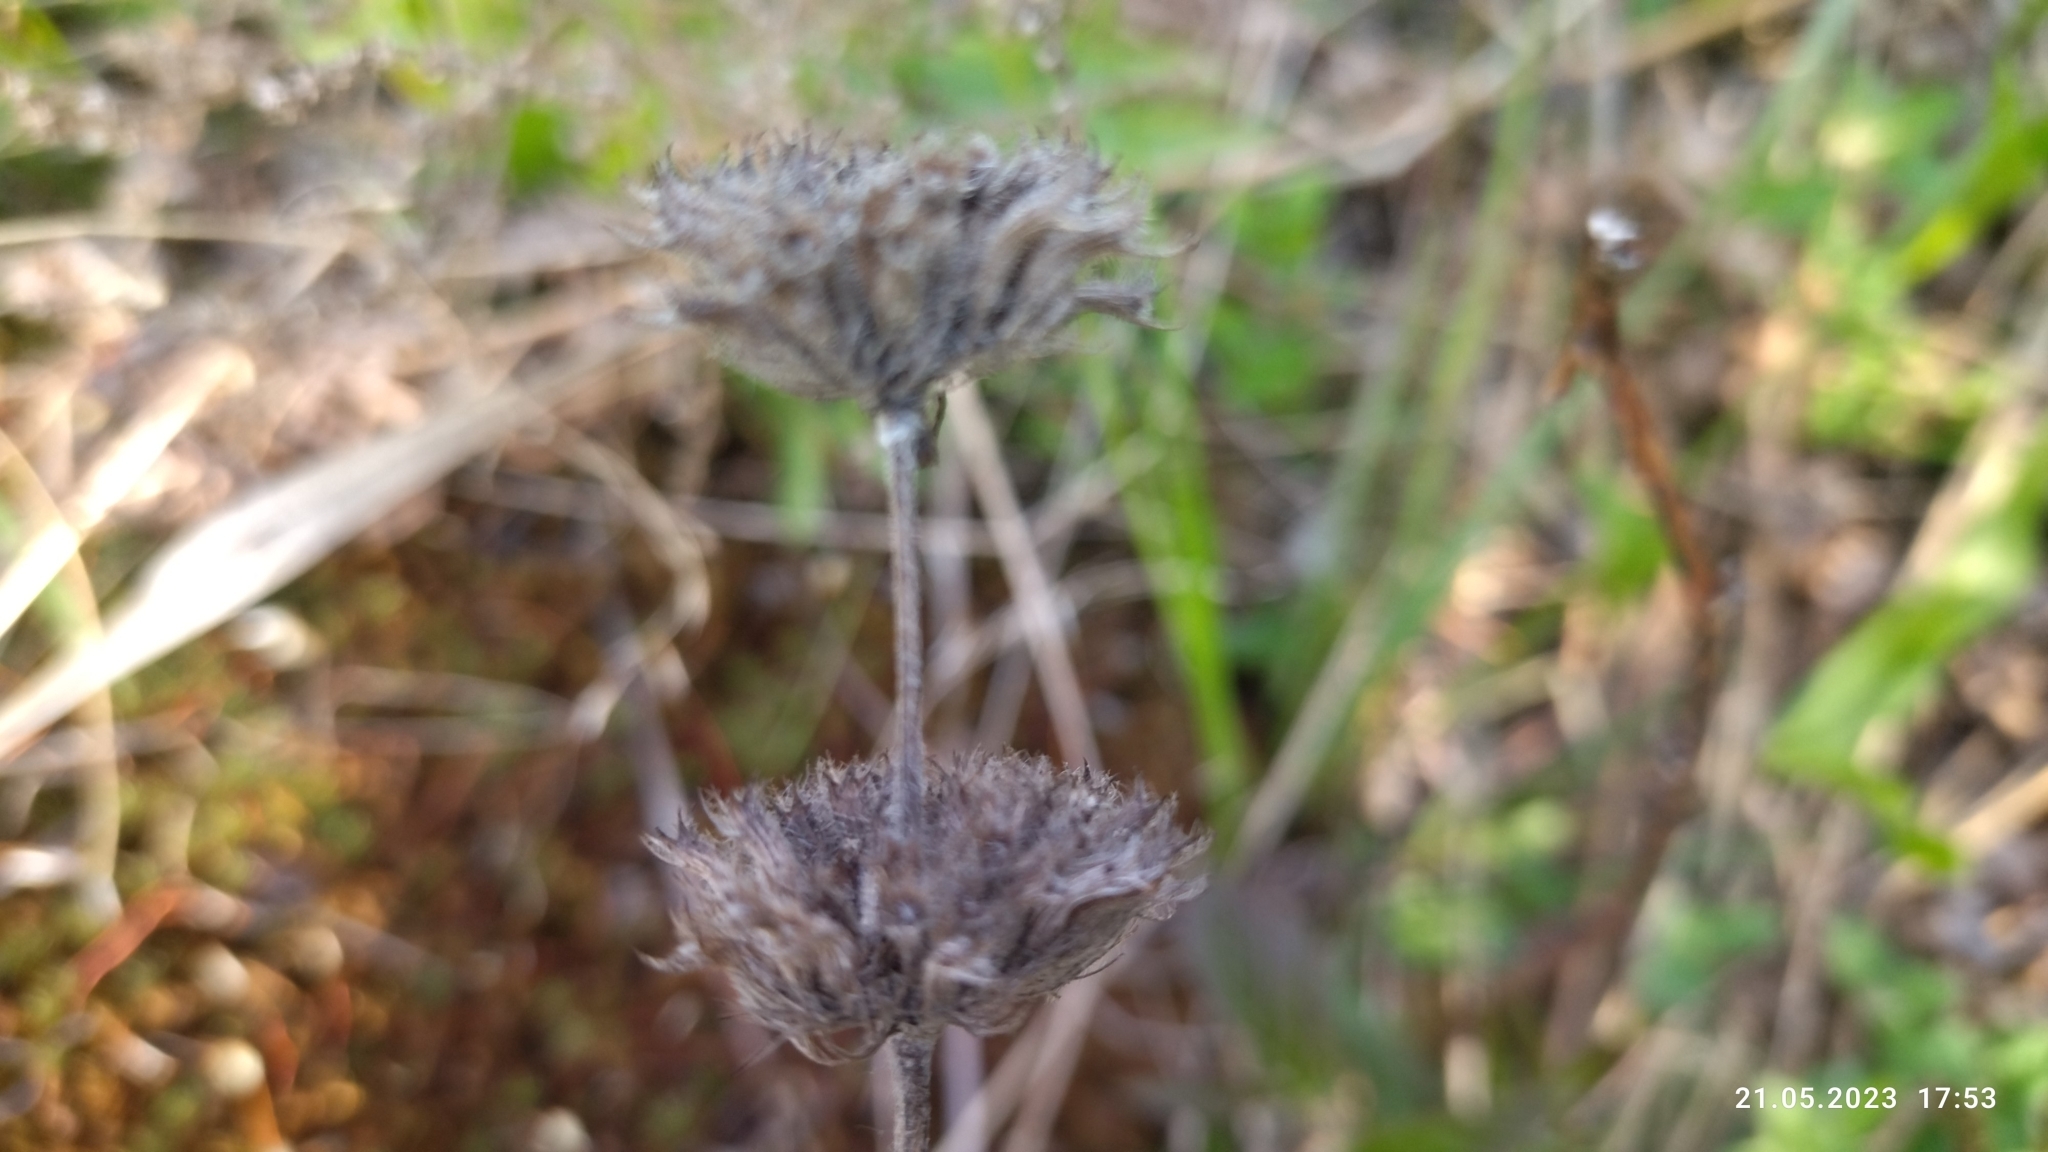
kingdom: Plantae
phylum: Tracheophyta
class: Magnoliopsida
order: Lamiales
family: Lamiaceae
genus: Clinopodium
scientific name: Clinopodium vulgare
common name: Wild basil
